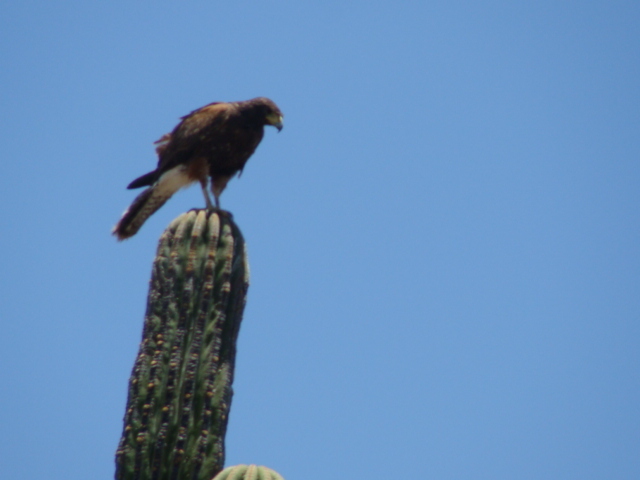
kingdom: Animalia
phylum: Chordata
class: Aves
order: Accipitriformes
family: Accipitridae
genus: Parabuteo
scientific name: Parabuteo unicinctus
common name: Harris's hawk
